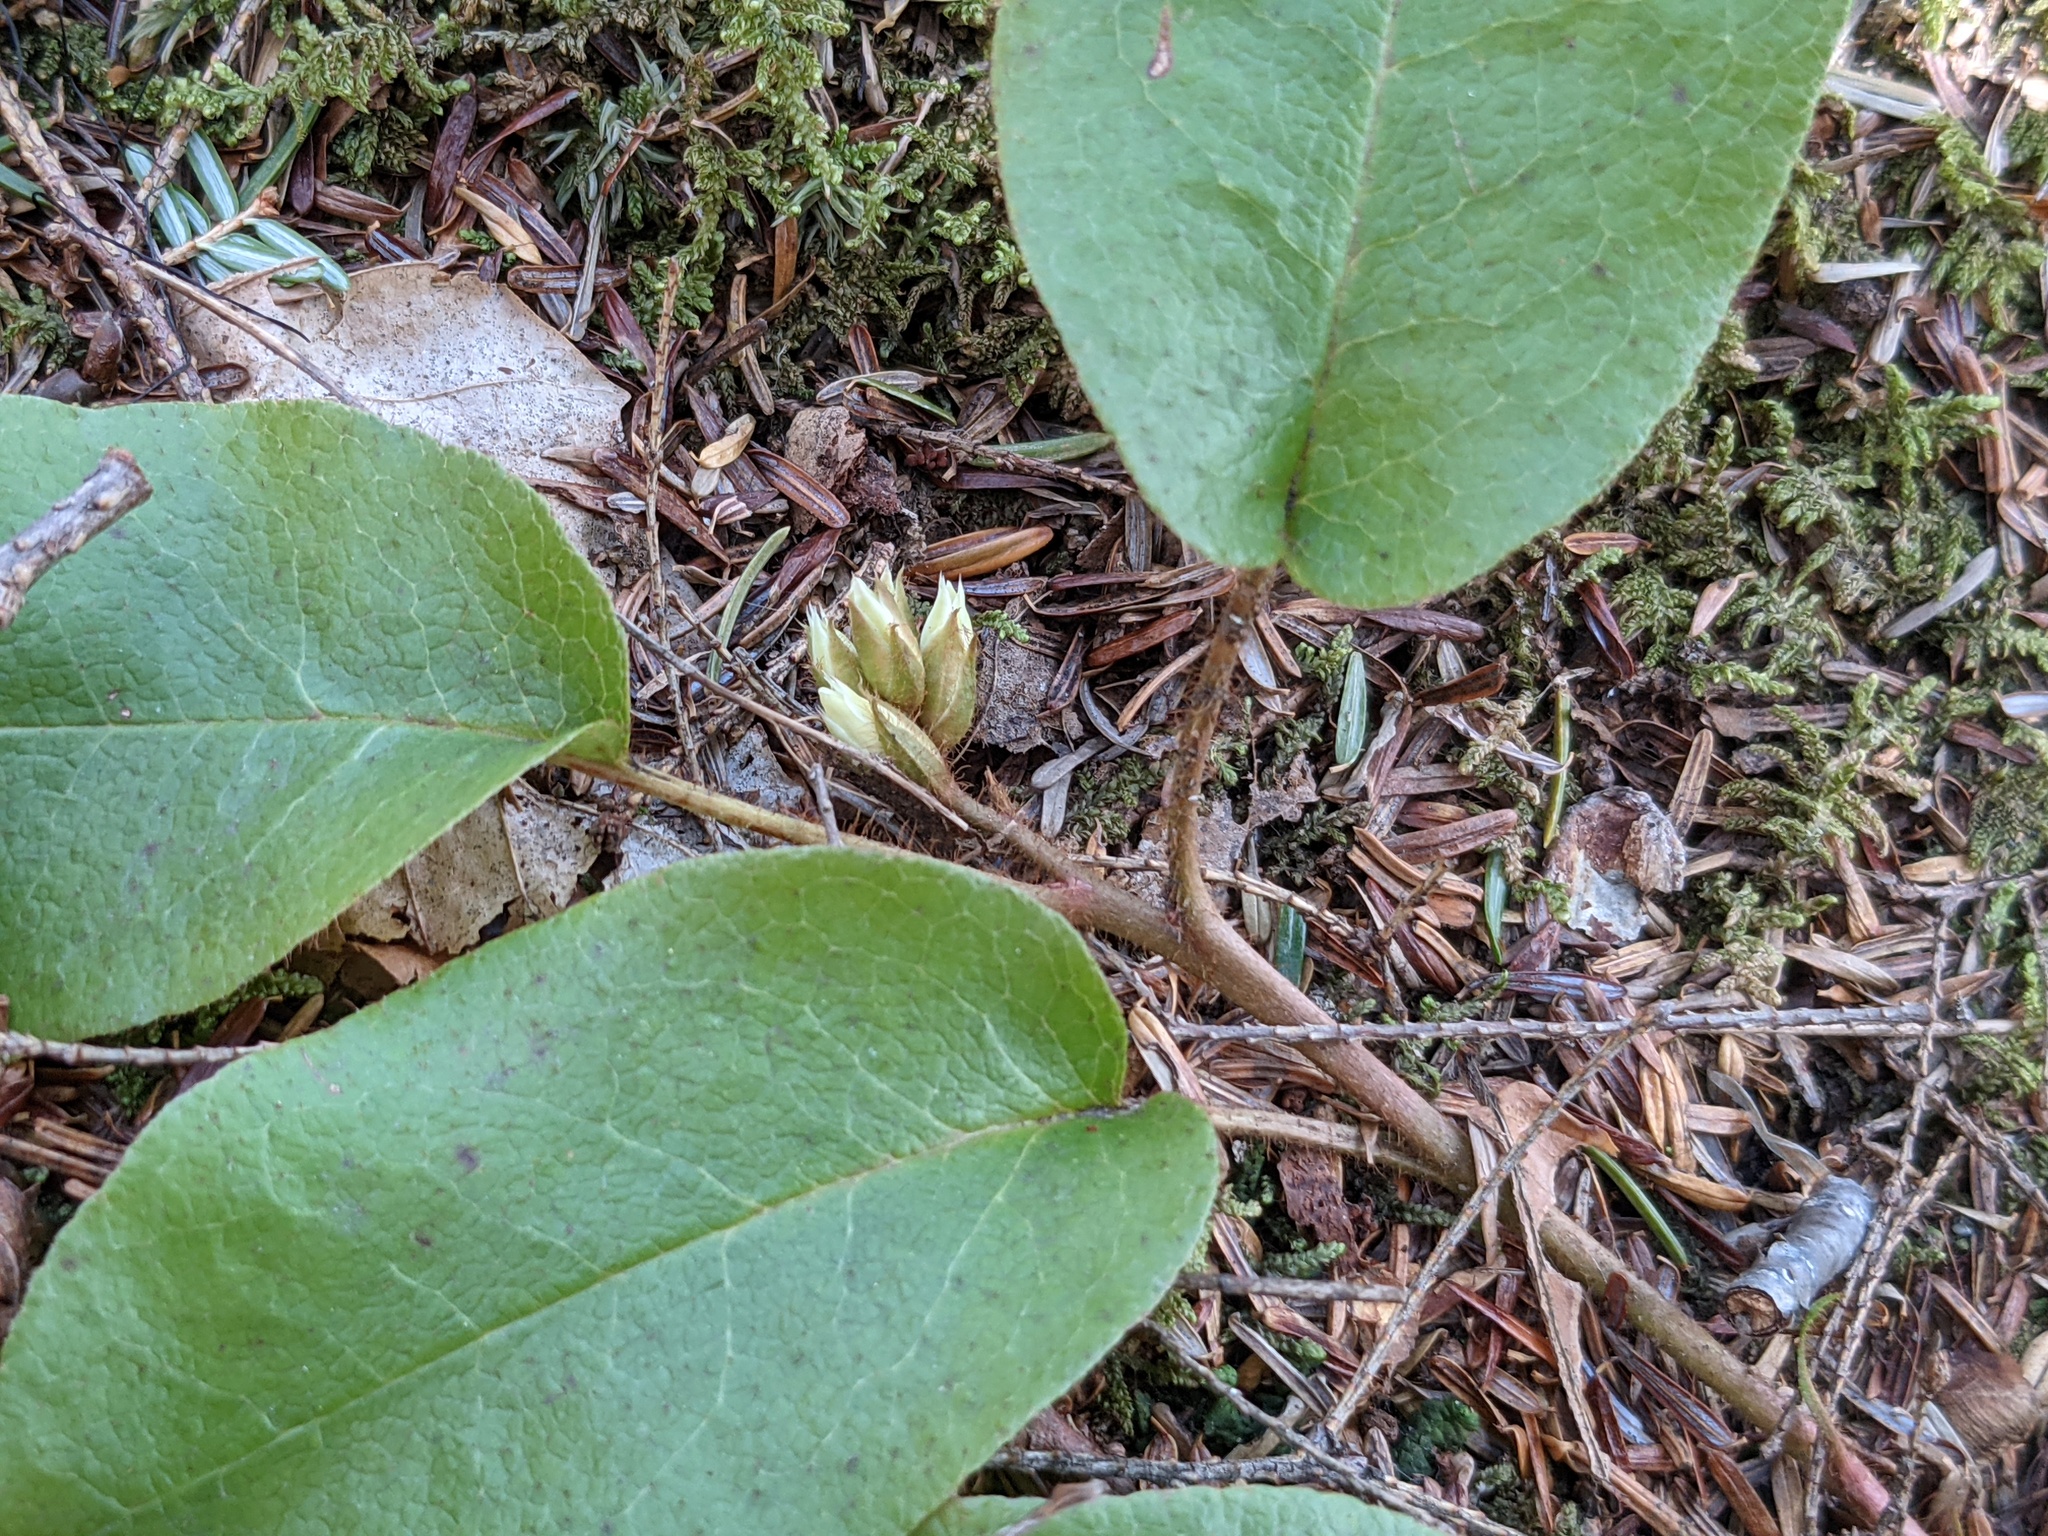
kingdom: Plantae
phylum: Tracheophyta
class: Magnoliopsida
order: Ericales
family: Ericaceae
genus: Epigaea
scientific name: Epigaea repens
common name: Gravelroot
